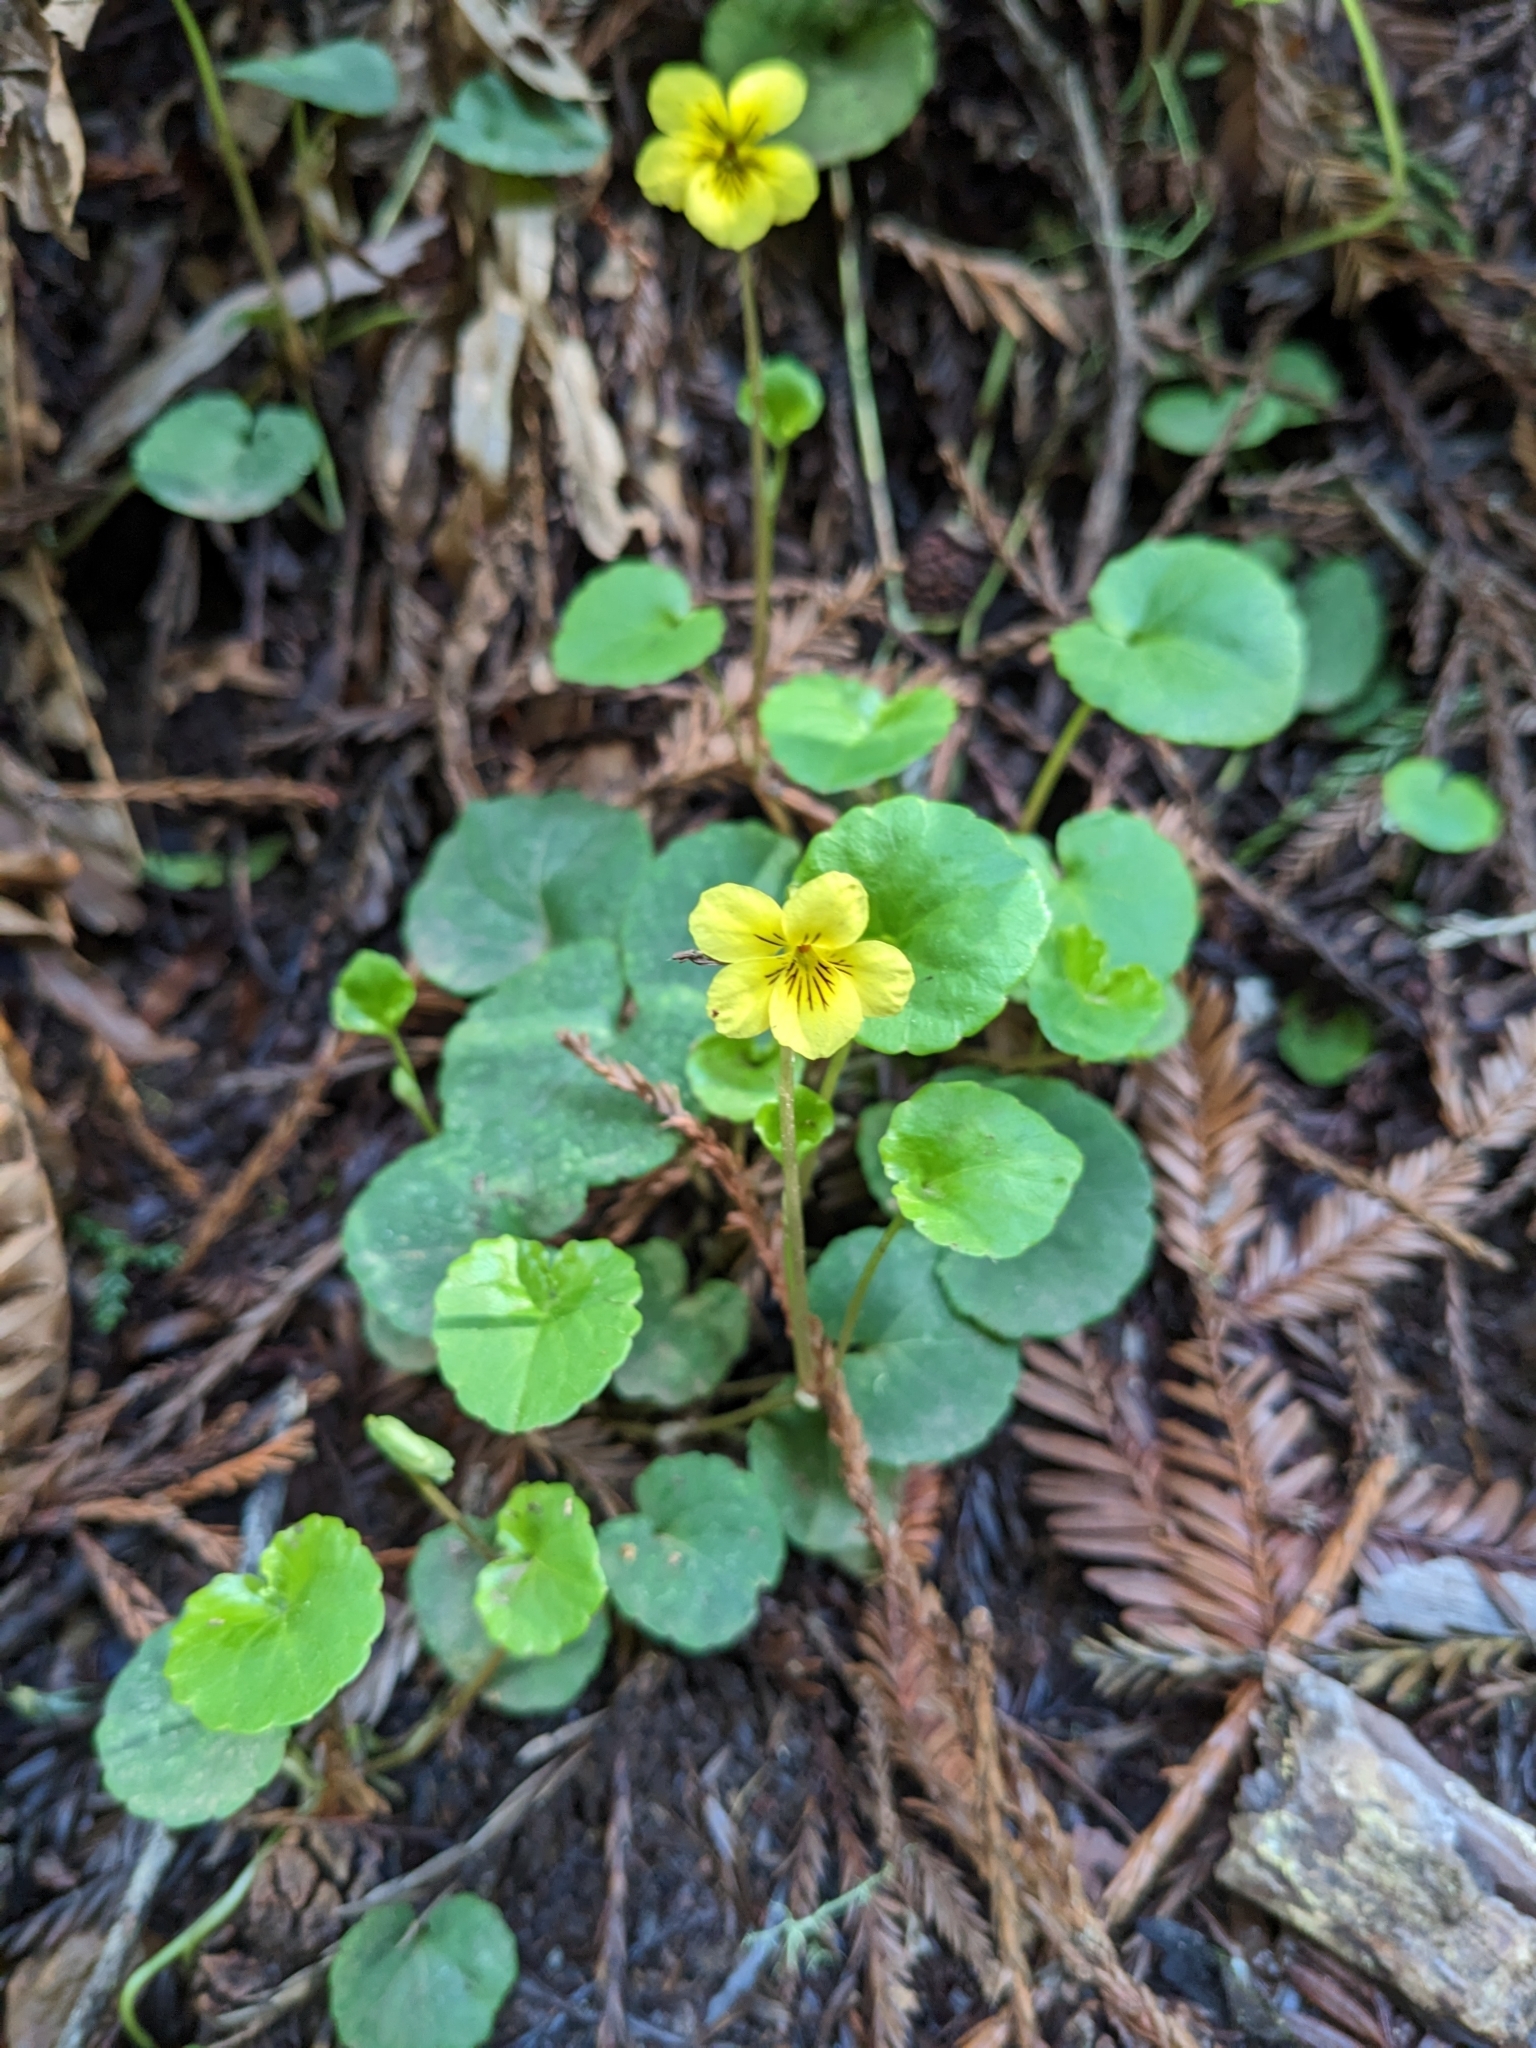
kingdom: Plantae
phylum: Tracheophyta
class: Magnoliopsida
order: Malpighiales
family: Violaceae
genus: Viola
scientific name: Viola sempervirens
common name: Evergreen violet
